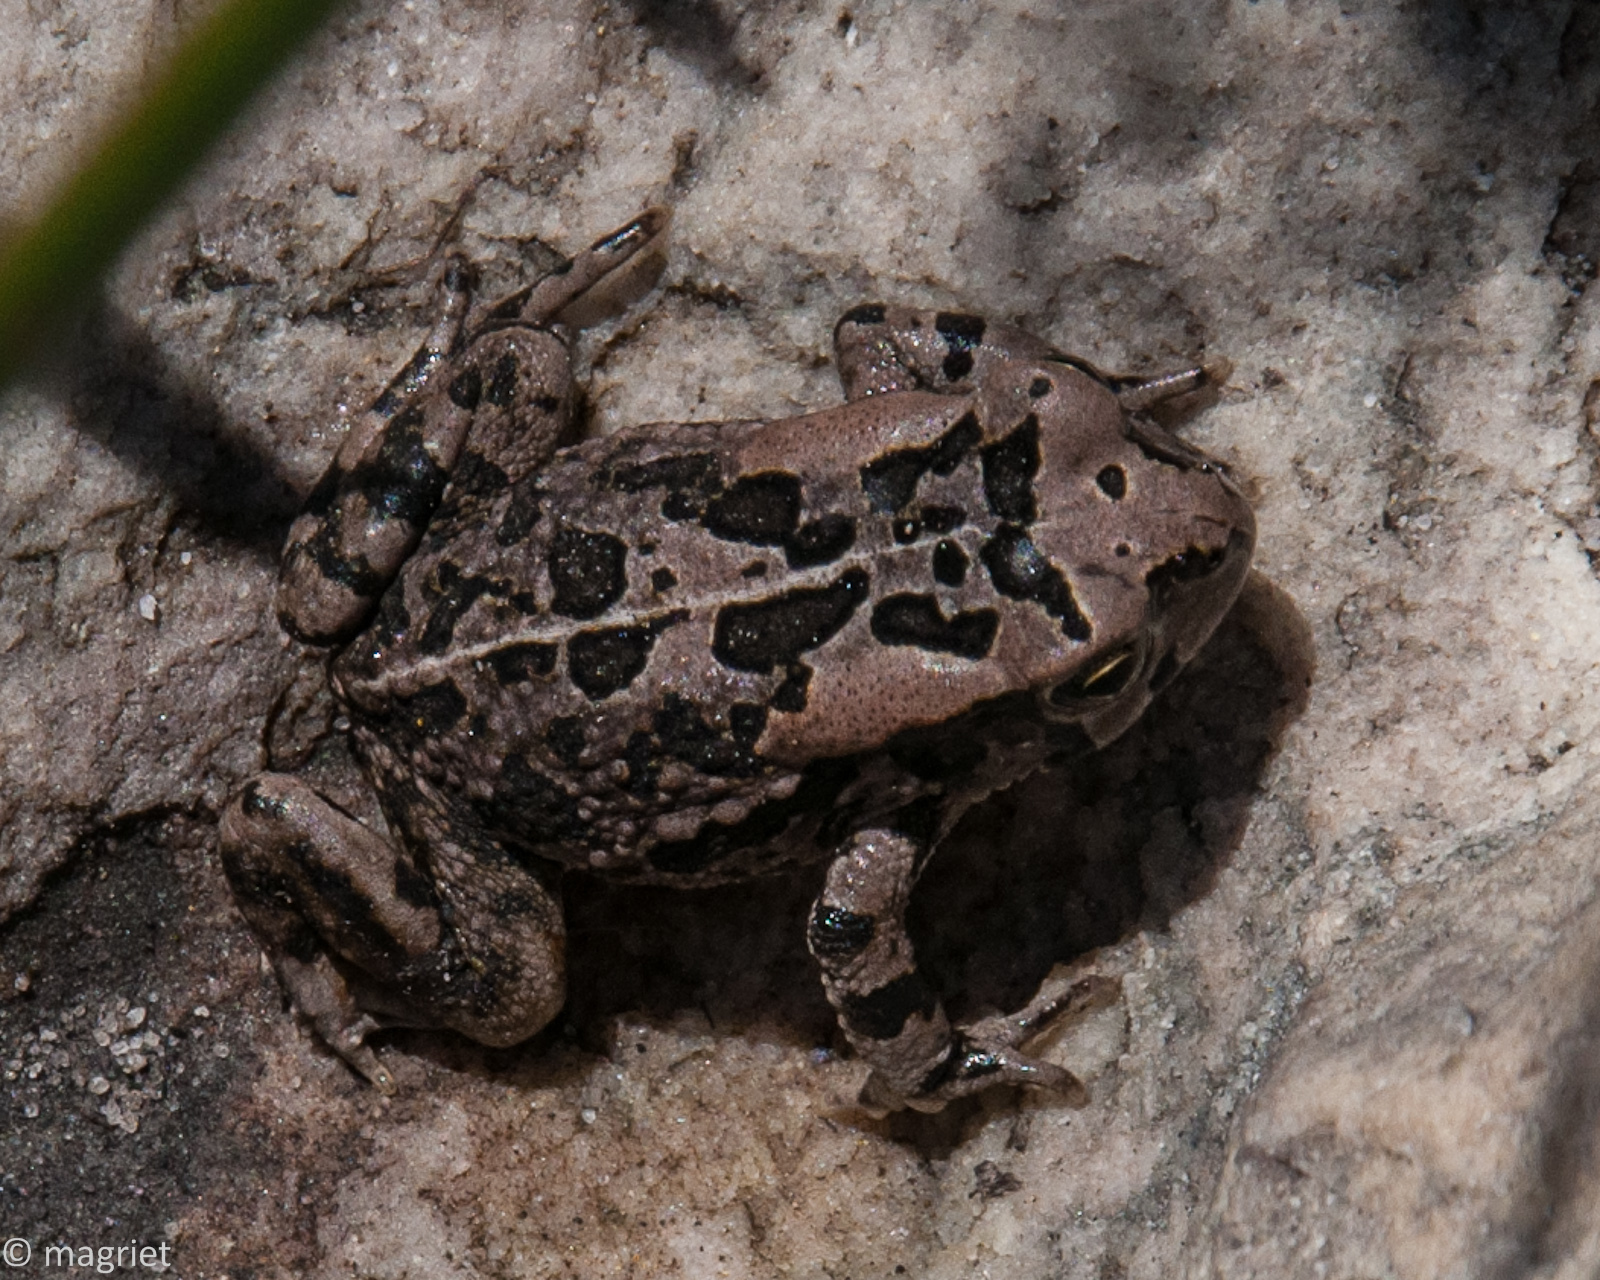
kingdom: Animalia
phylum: Chordata
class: Amphibia
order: Anura
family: Bufonidae
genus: Sclerophrys
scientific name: Sclerophrys capensis
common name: Ranger’s toad
